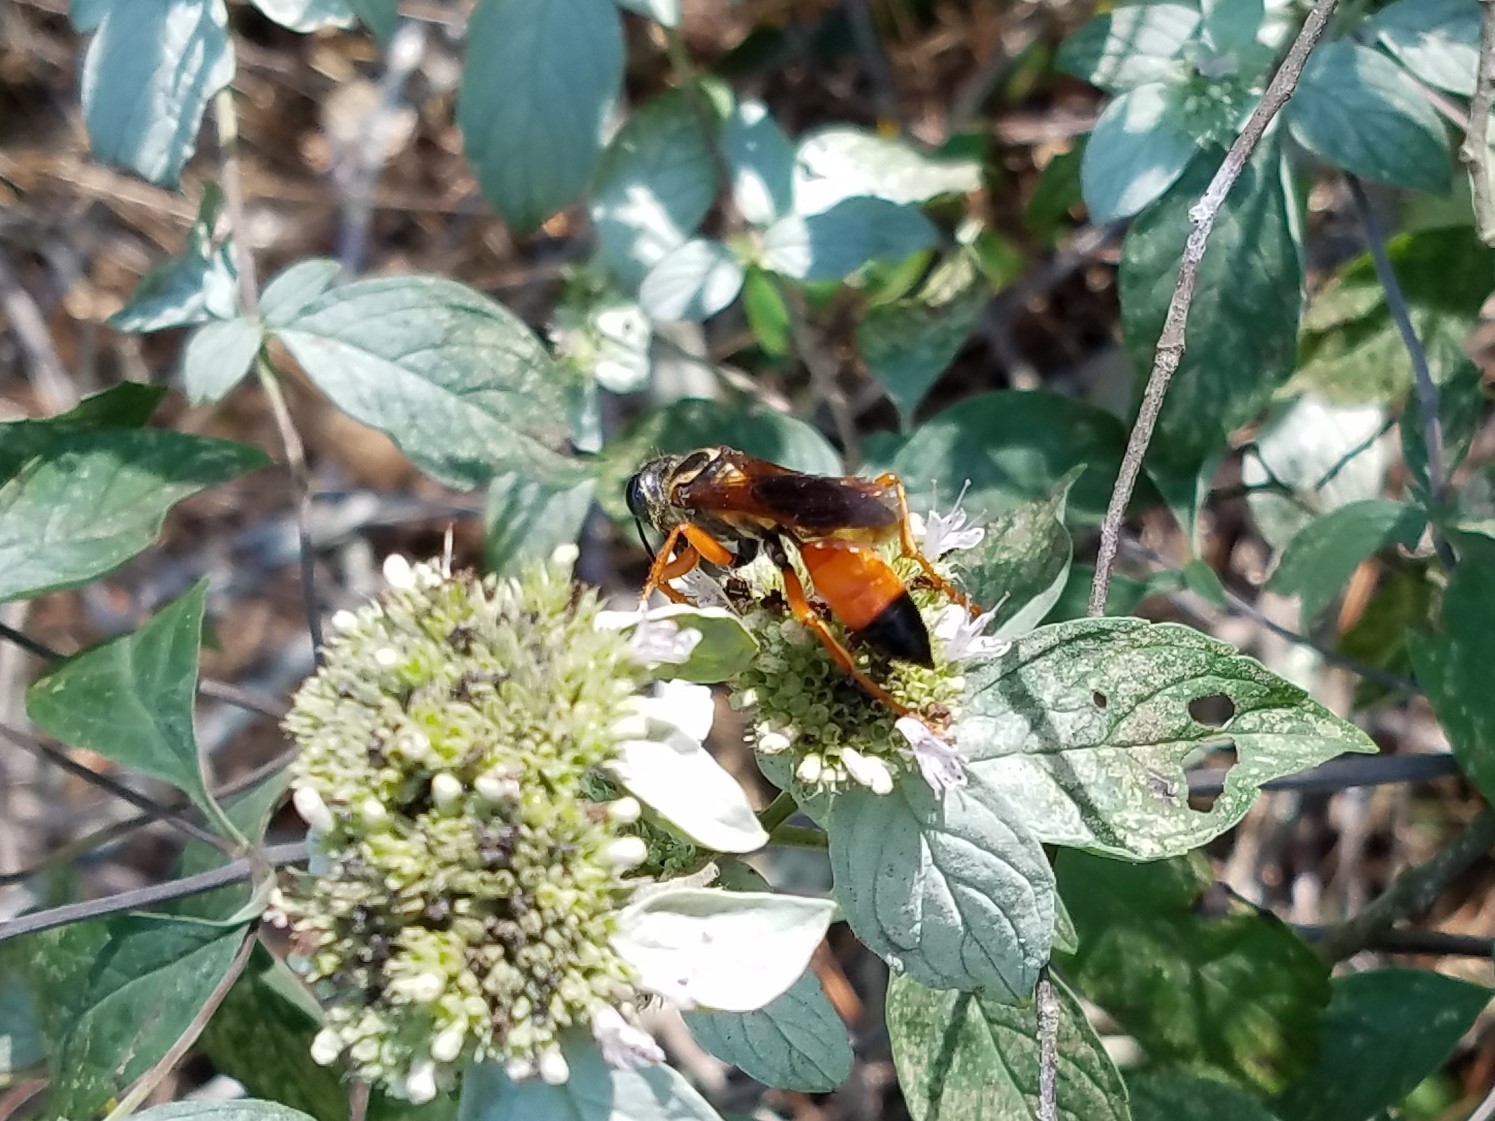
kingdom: Animalia
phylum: Arthropoda
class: Insecta
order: Hymenoptera
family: Sphecidae
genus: Sphex
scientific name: Sphex ichneumoneus
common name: Great golden digger wasp
